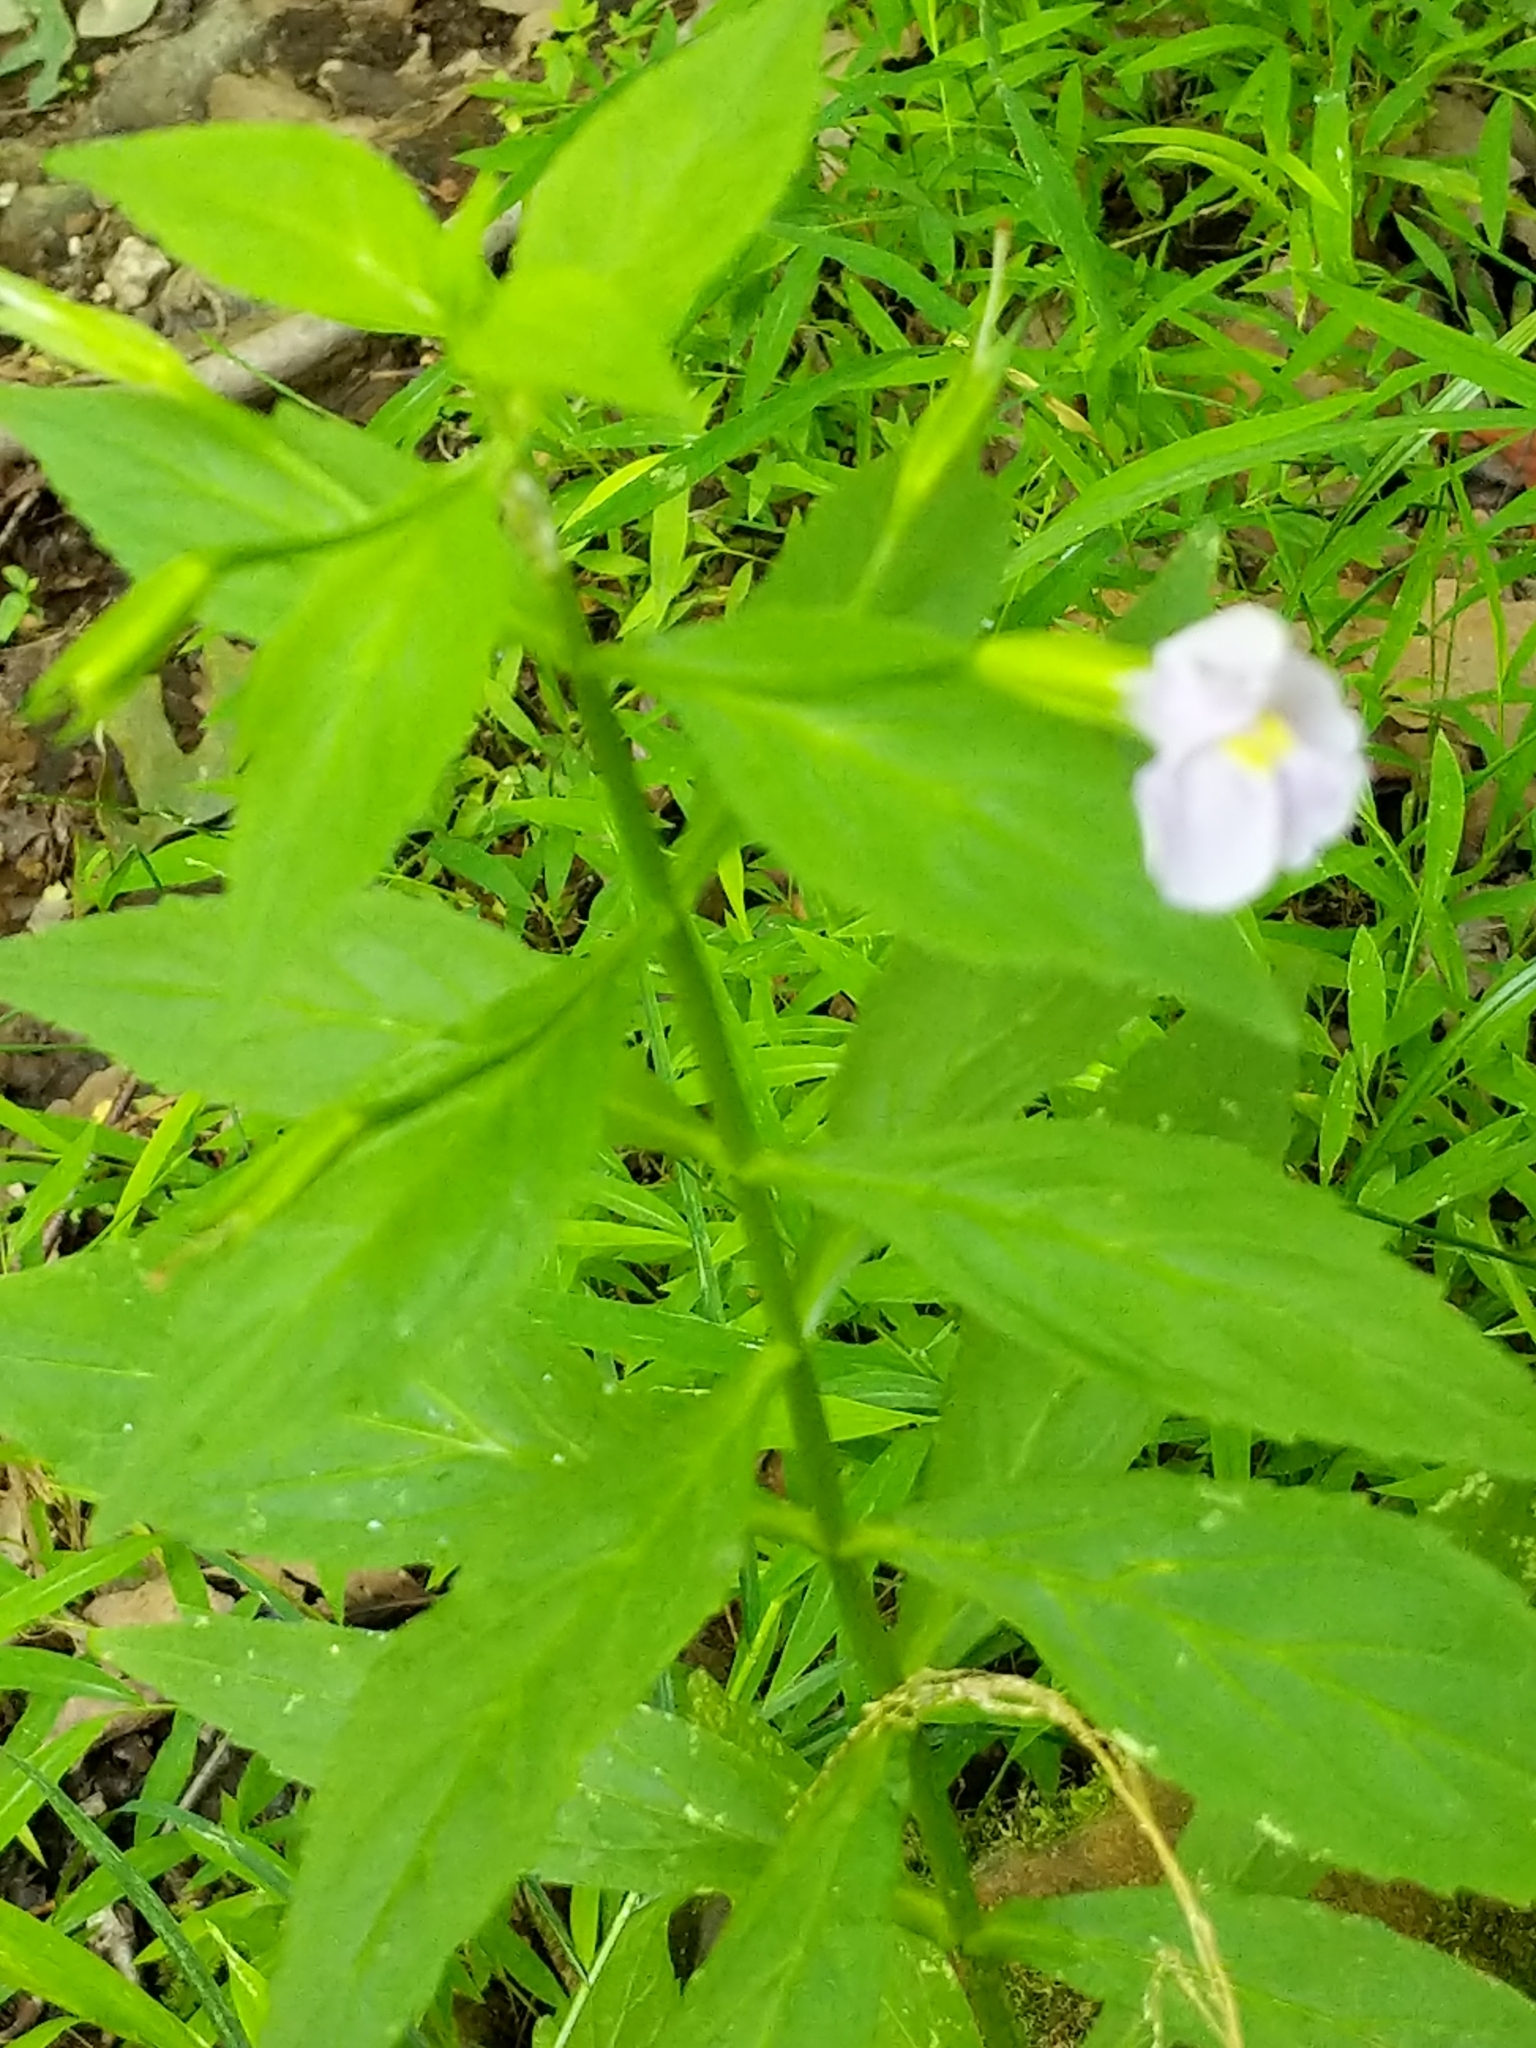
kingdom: Plantae
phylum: Tracheophyta
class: Magnoliopsida
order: Lamiales
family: Phrymaceae
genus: Mimulus
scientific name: Mimulus ringens
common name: Allegheny monkeyflower
